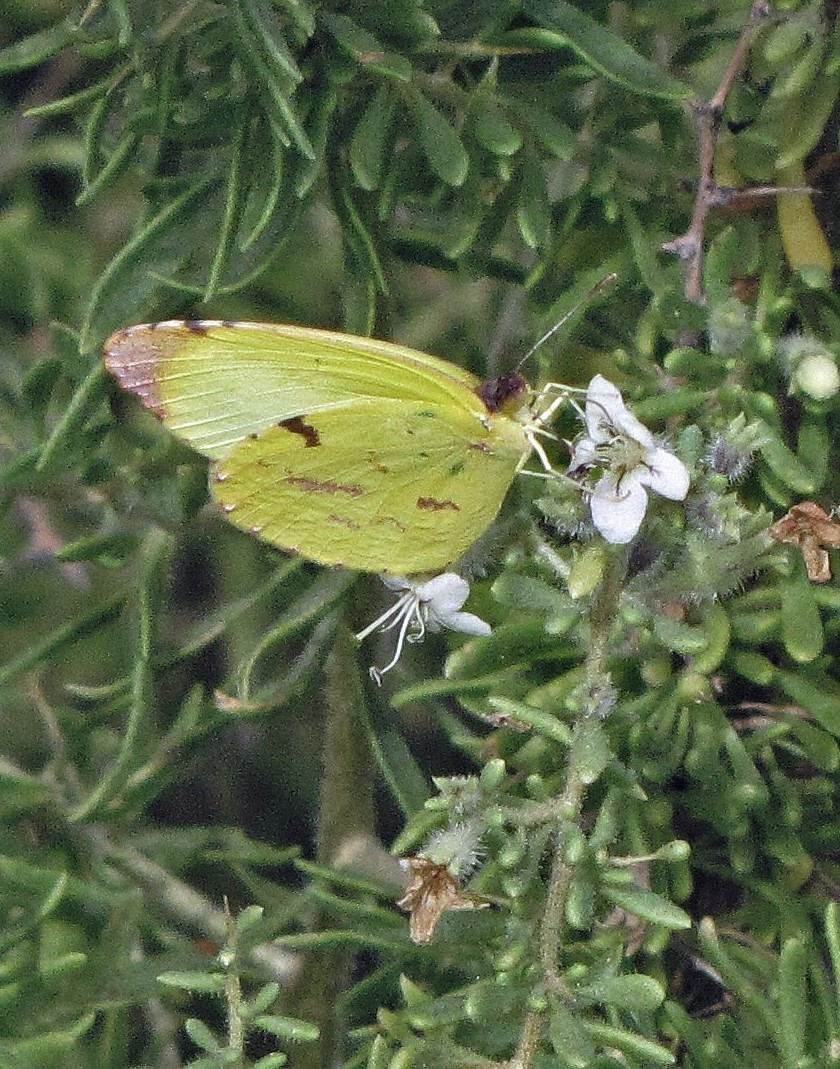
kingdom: Animalia
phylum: Arthropoda
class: Insecta
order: Lepidoptera
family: Pieridae
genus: Teriocolias
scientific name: Teriocolias
